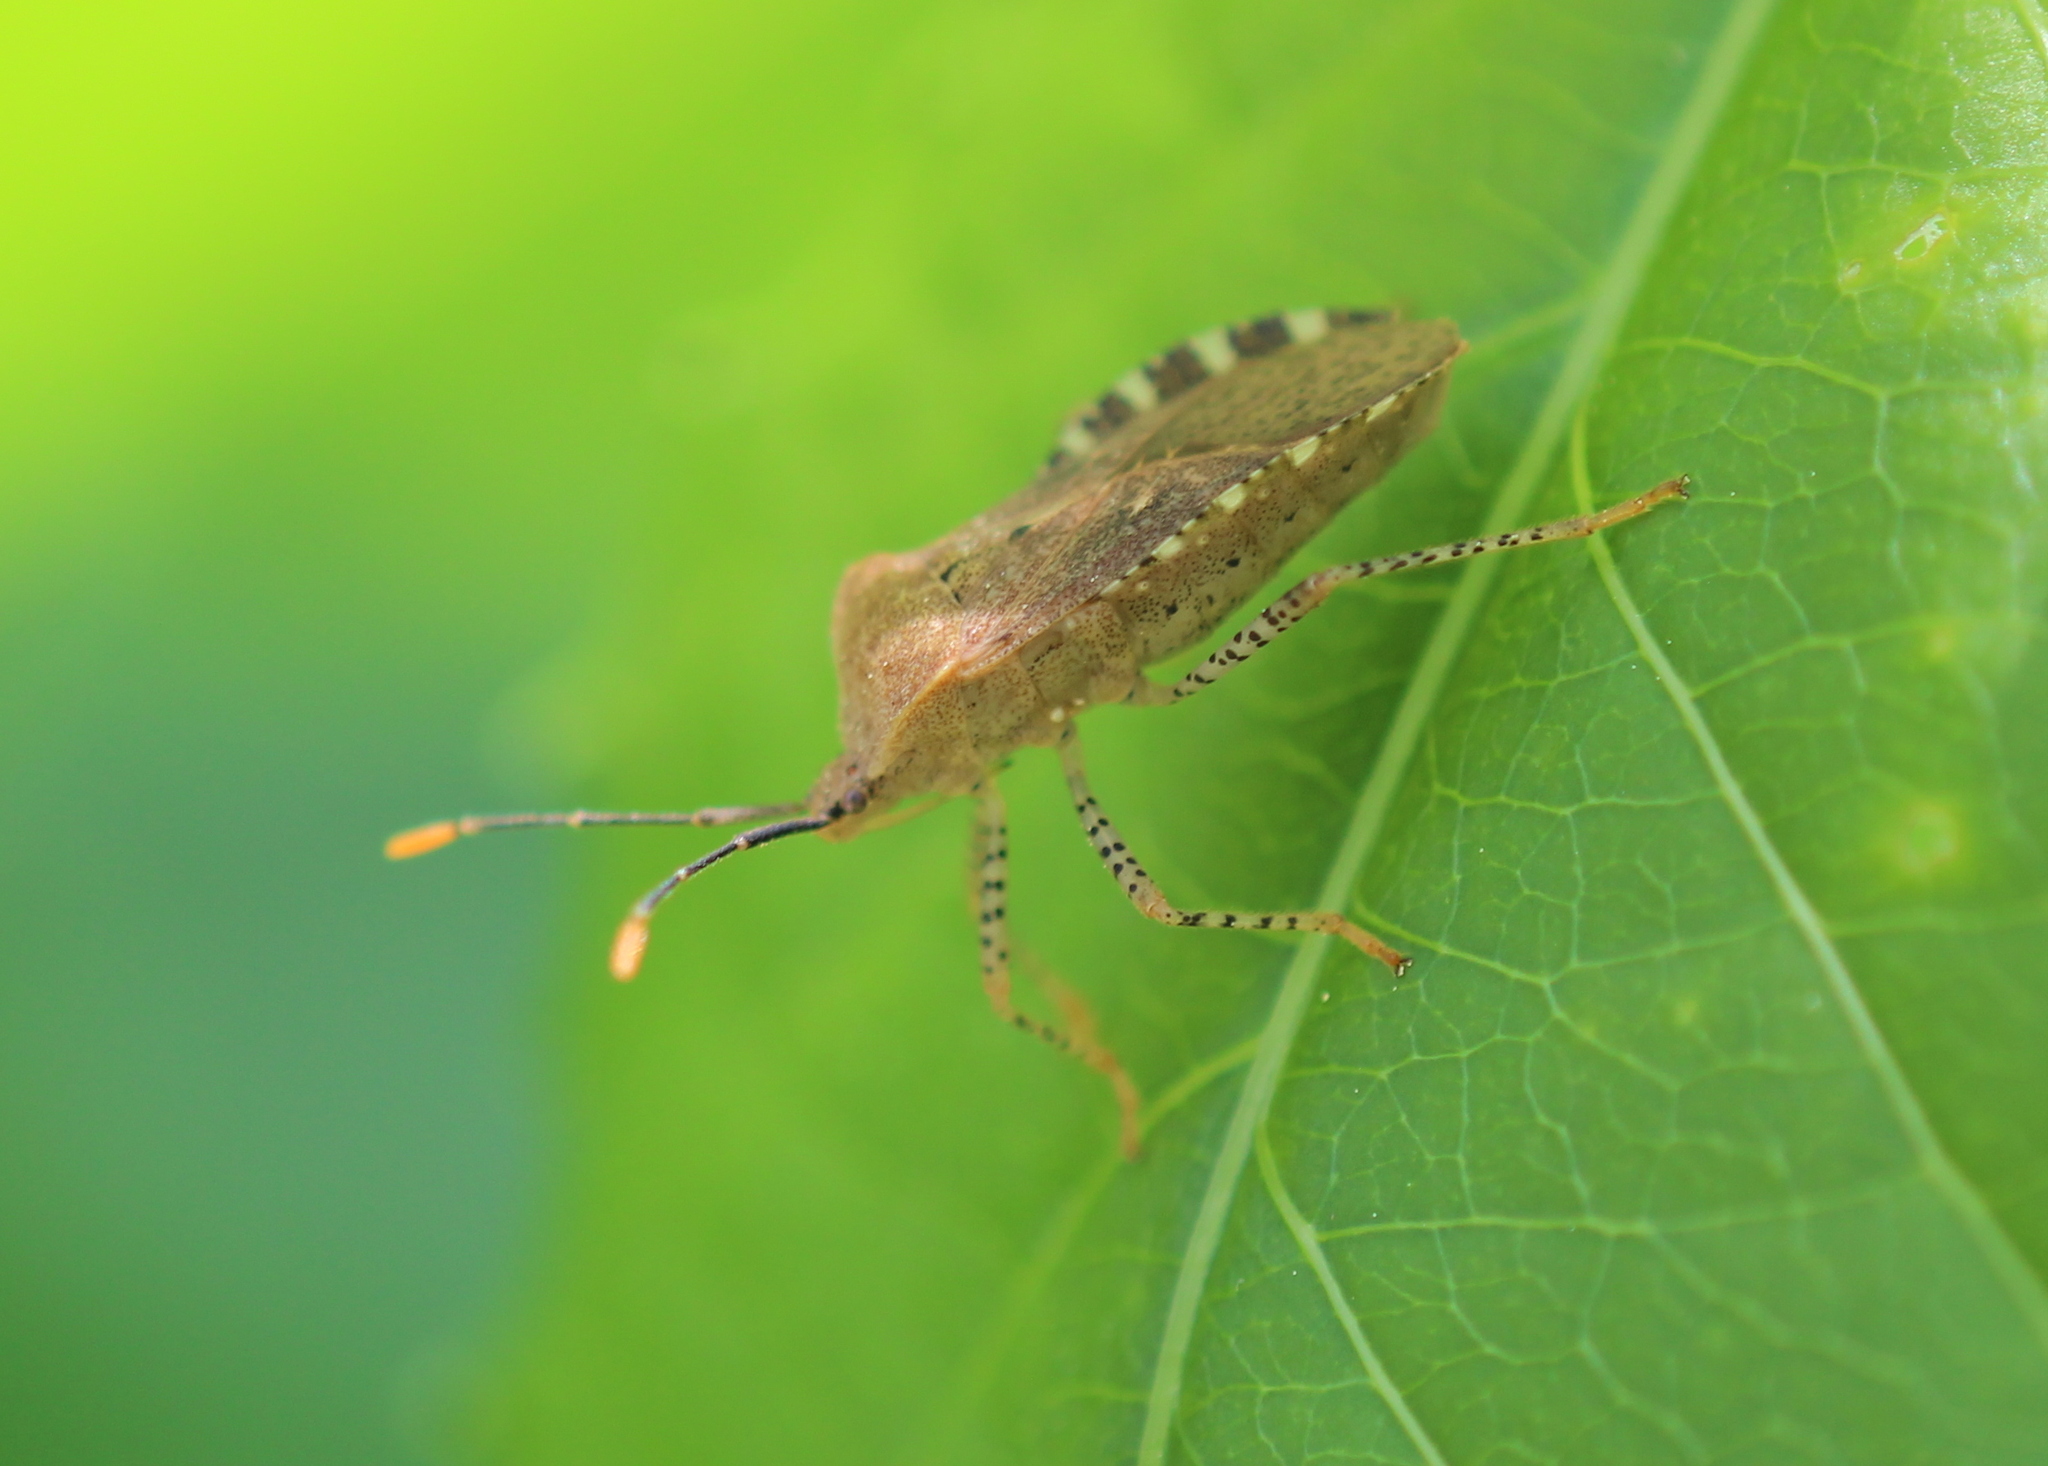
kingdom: Animalia
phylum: Arthropoda
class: Insecta
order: Hemiptera
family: Coreidae
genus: Anasa
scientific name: Anasa repetita
